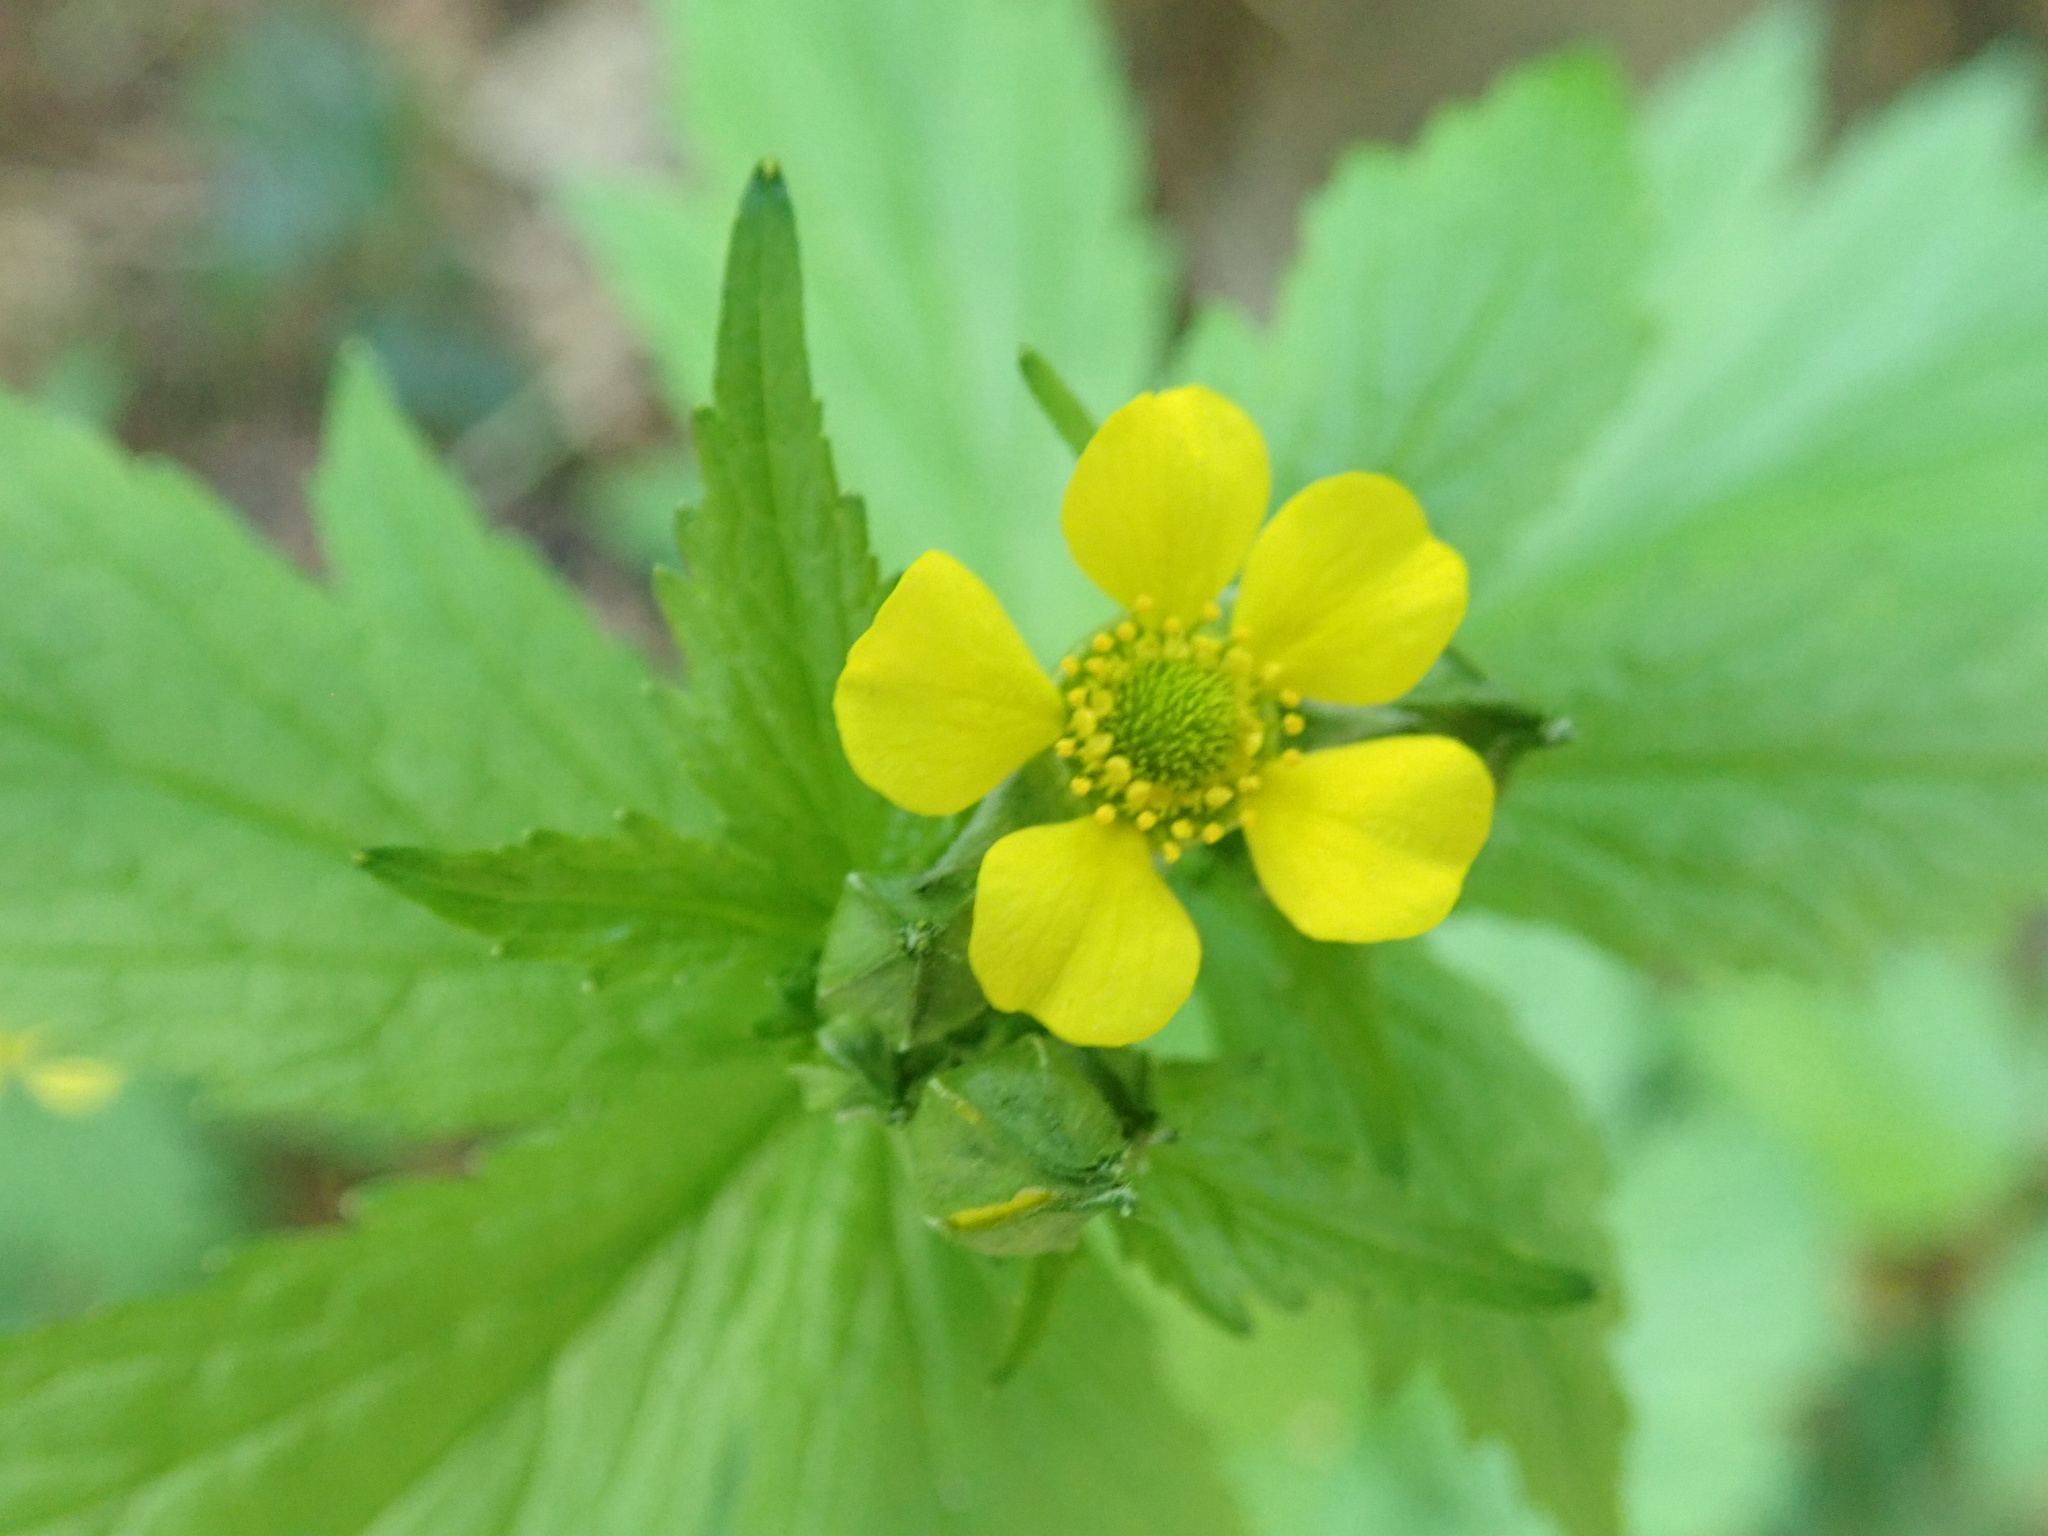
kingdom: Plantae
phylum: Tracheophyta
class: Magnoliopsida
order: Rosales
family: Rosaceae
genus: Geum
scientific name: Geum macrophyllum
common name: Large-leaved avens
